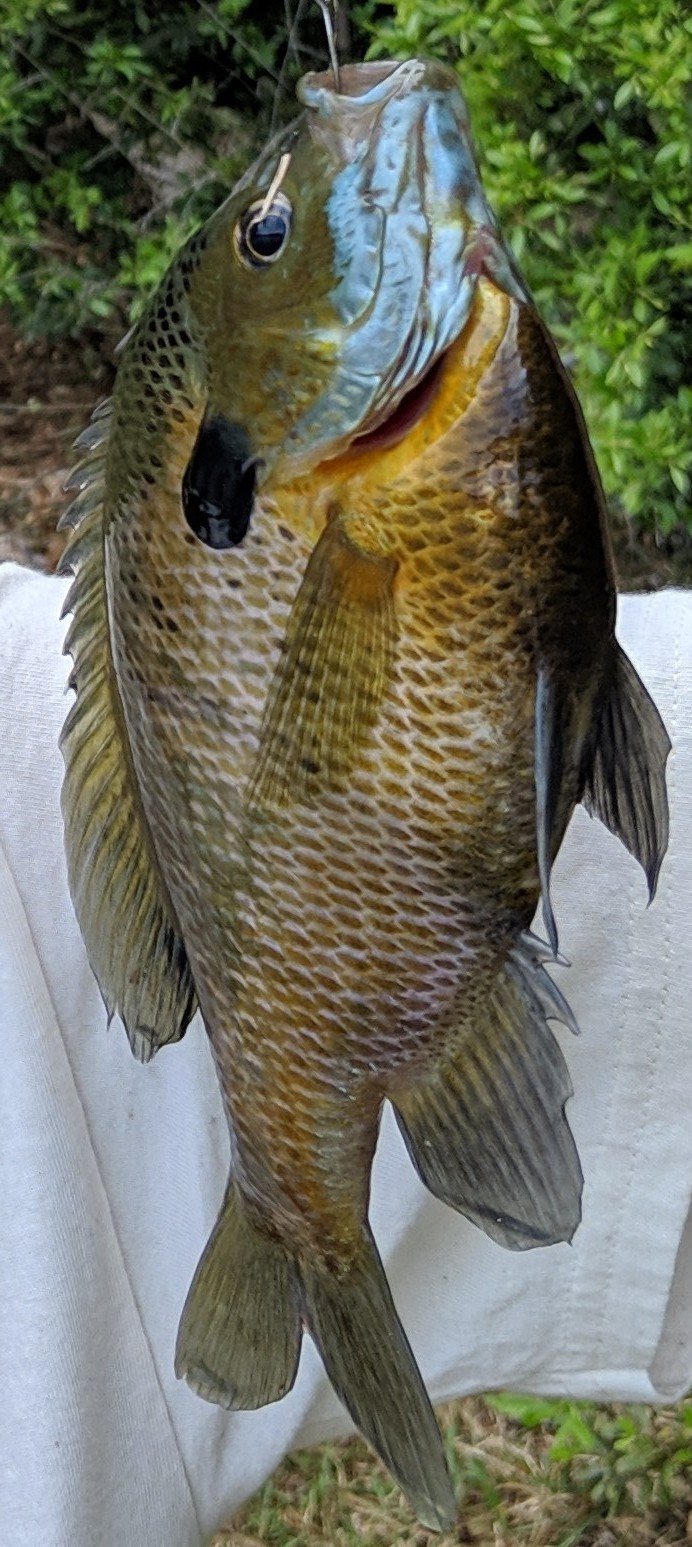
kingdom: Animalia
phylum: Chordata
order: Perciformes
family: Centrarchidae
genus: Lepomis
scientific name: Lepomis macrochirus
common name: Bluegill
